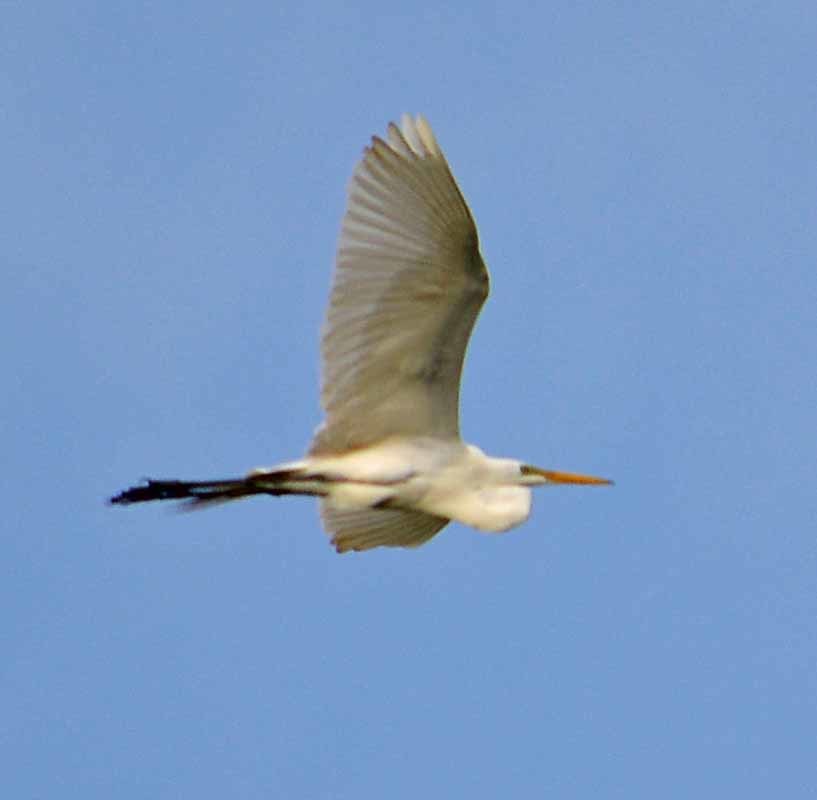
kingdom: Animalia
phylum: Chordata
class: Aves
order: Pelecaniformes
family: Ardeidae
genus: Ardea
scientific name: Ardea alba
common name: Great egret
